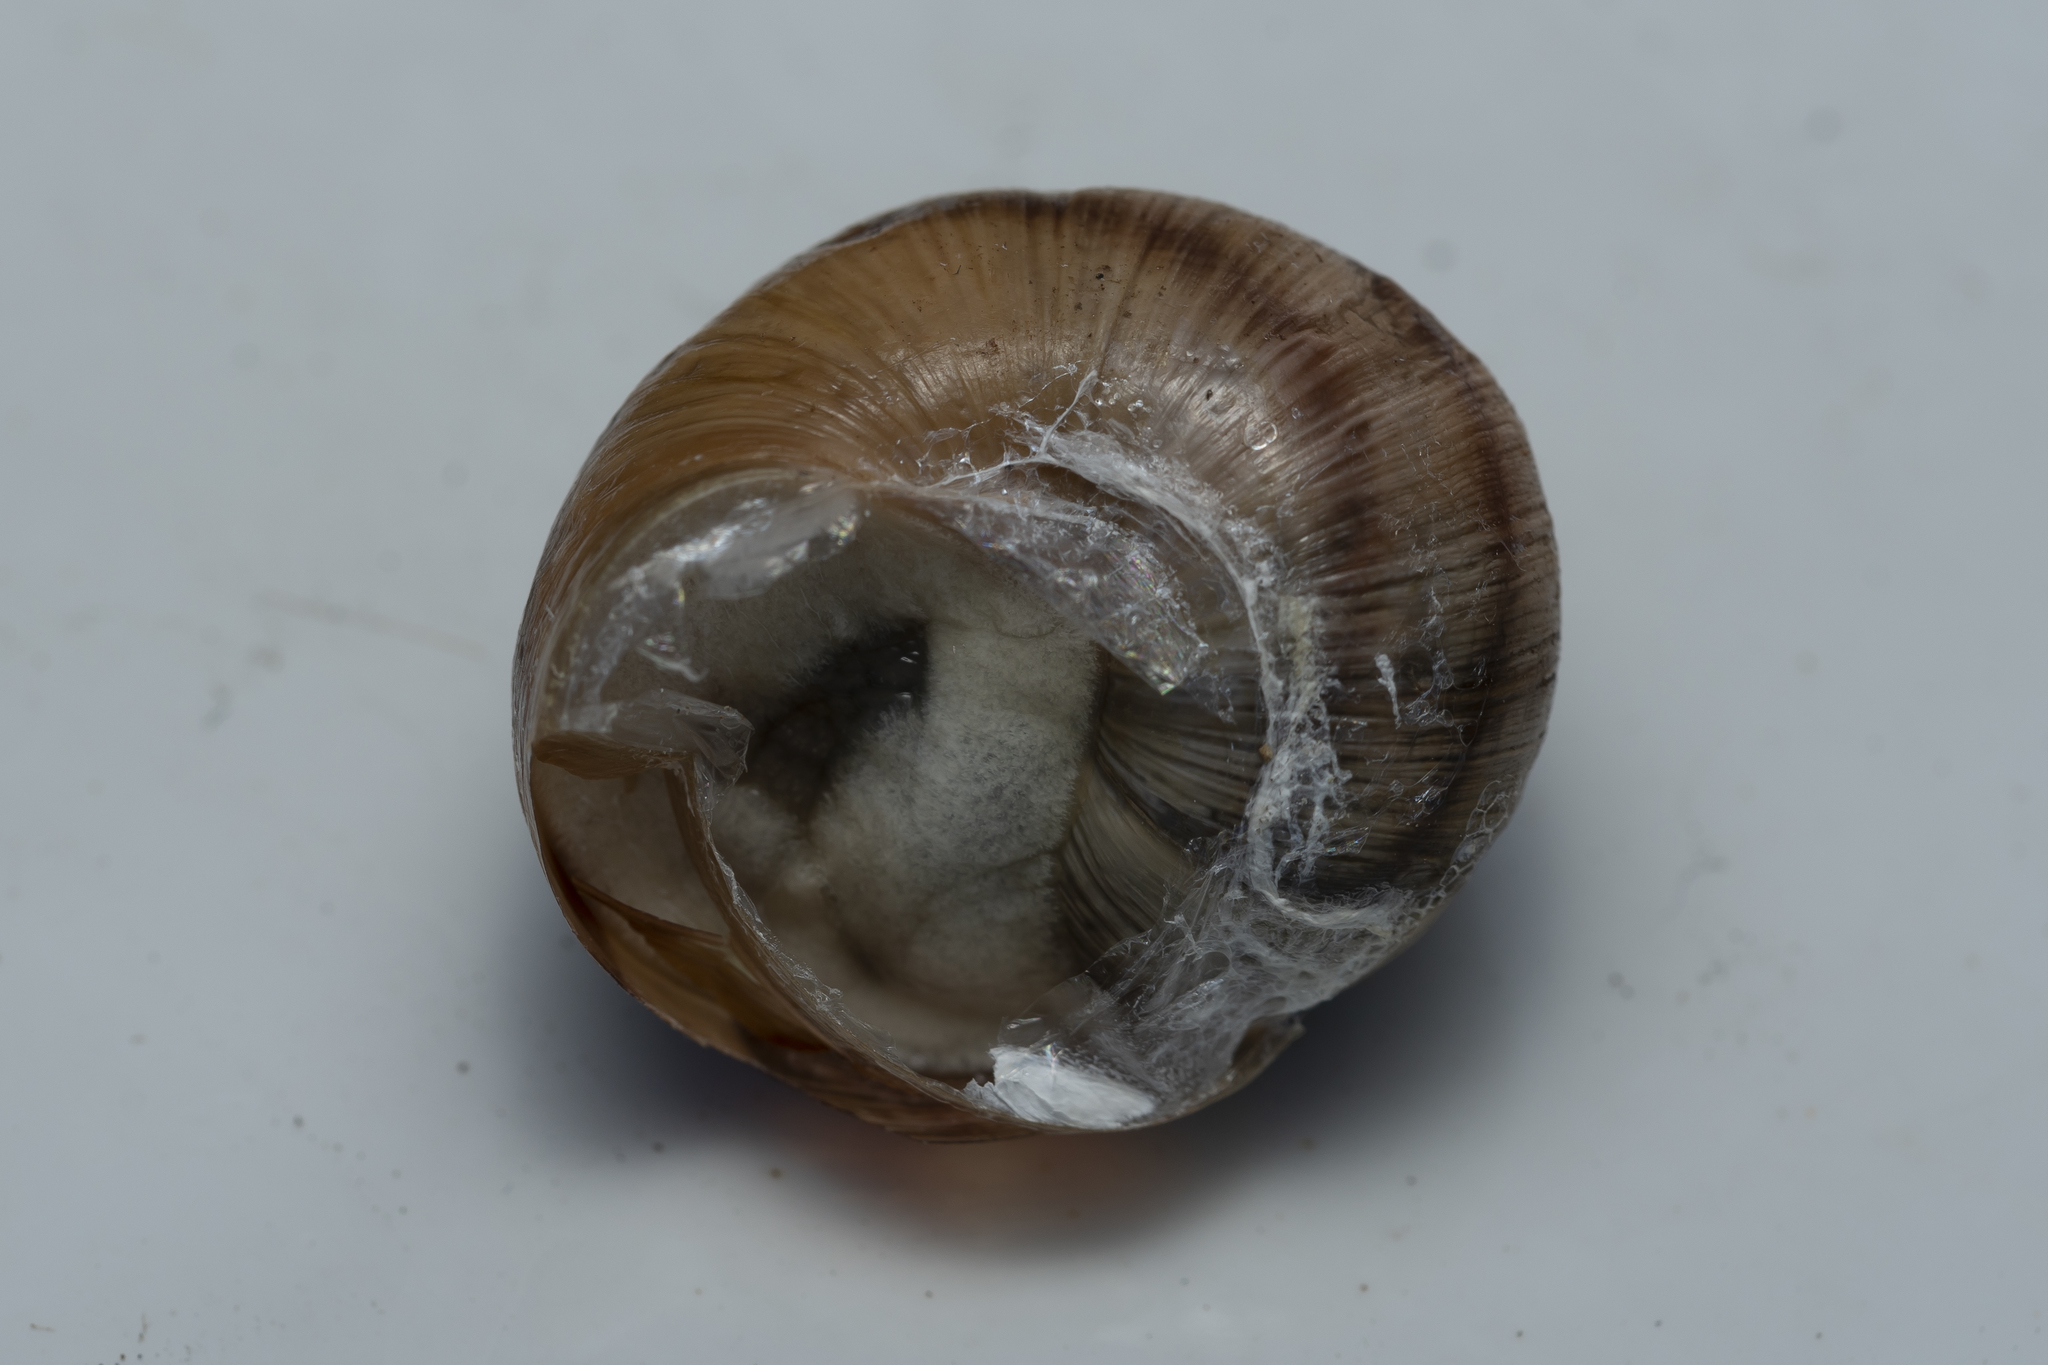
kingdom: Animalia
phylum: Mollusca
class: Gastropoda
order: Stylommatophora
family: Helicidae
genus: Helix
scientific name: Helix
